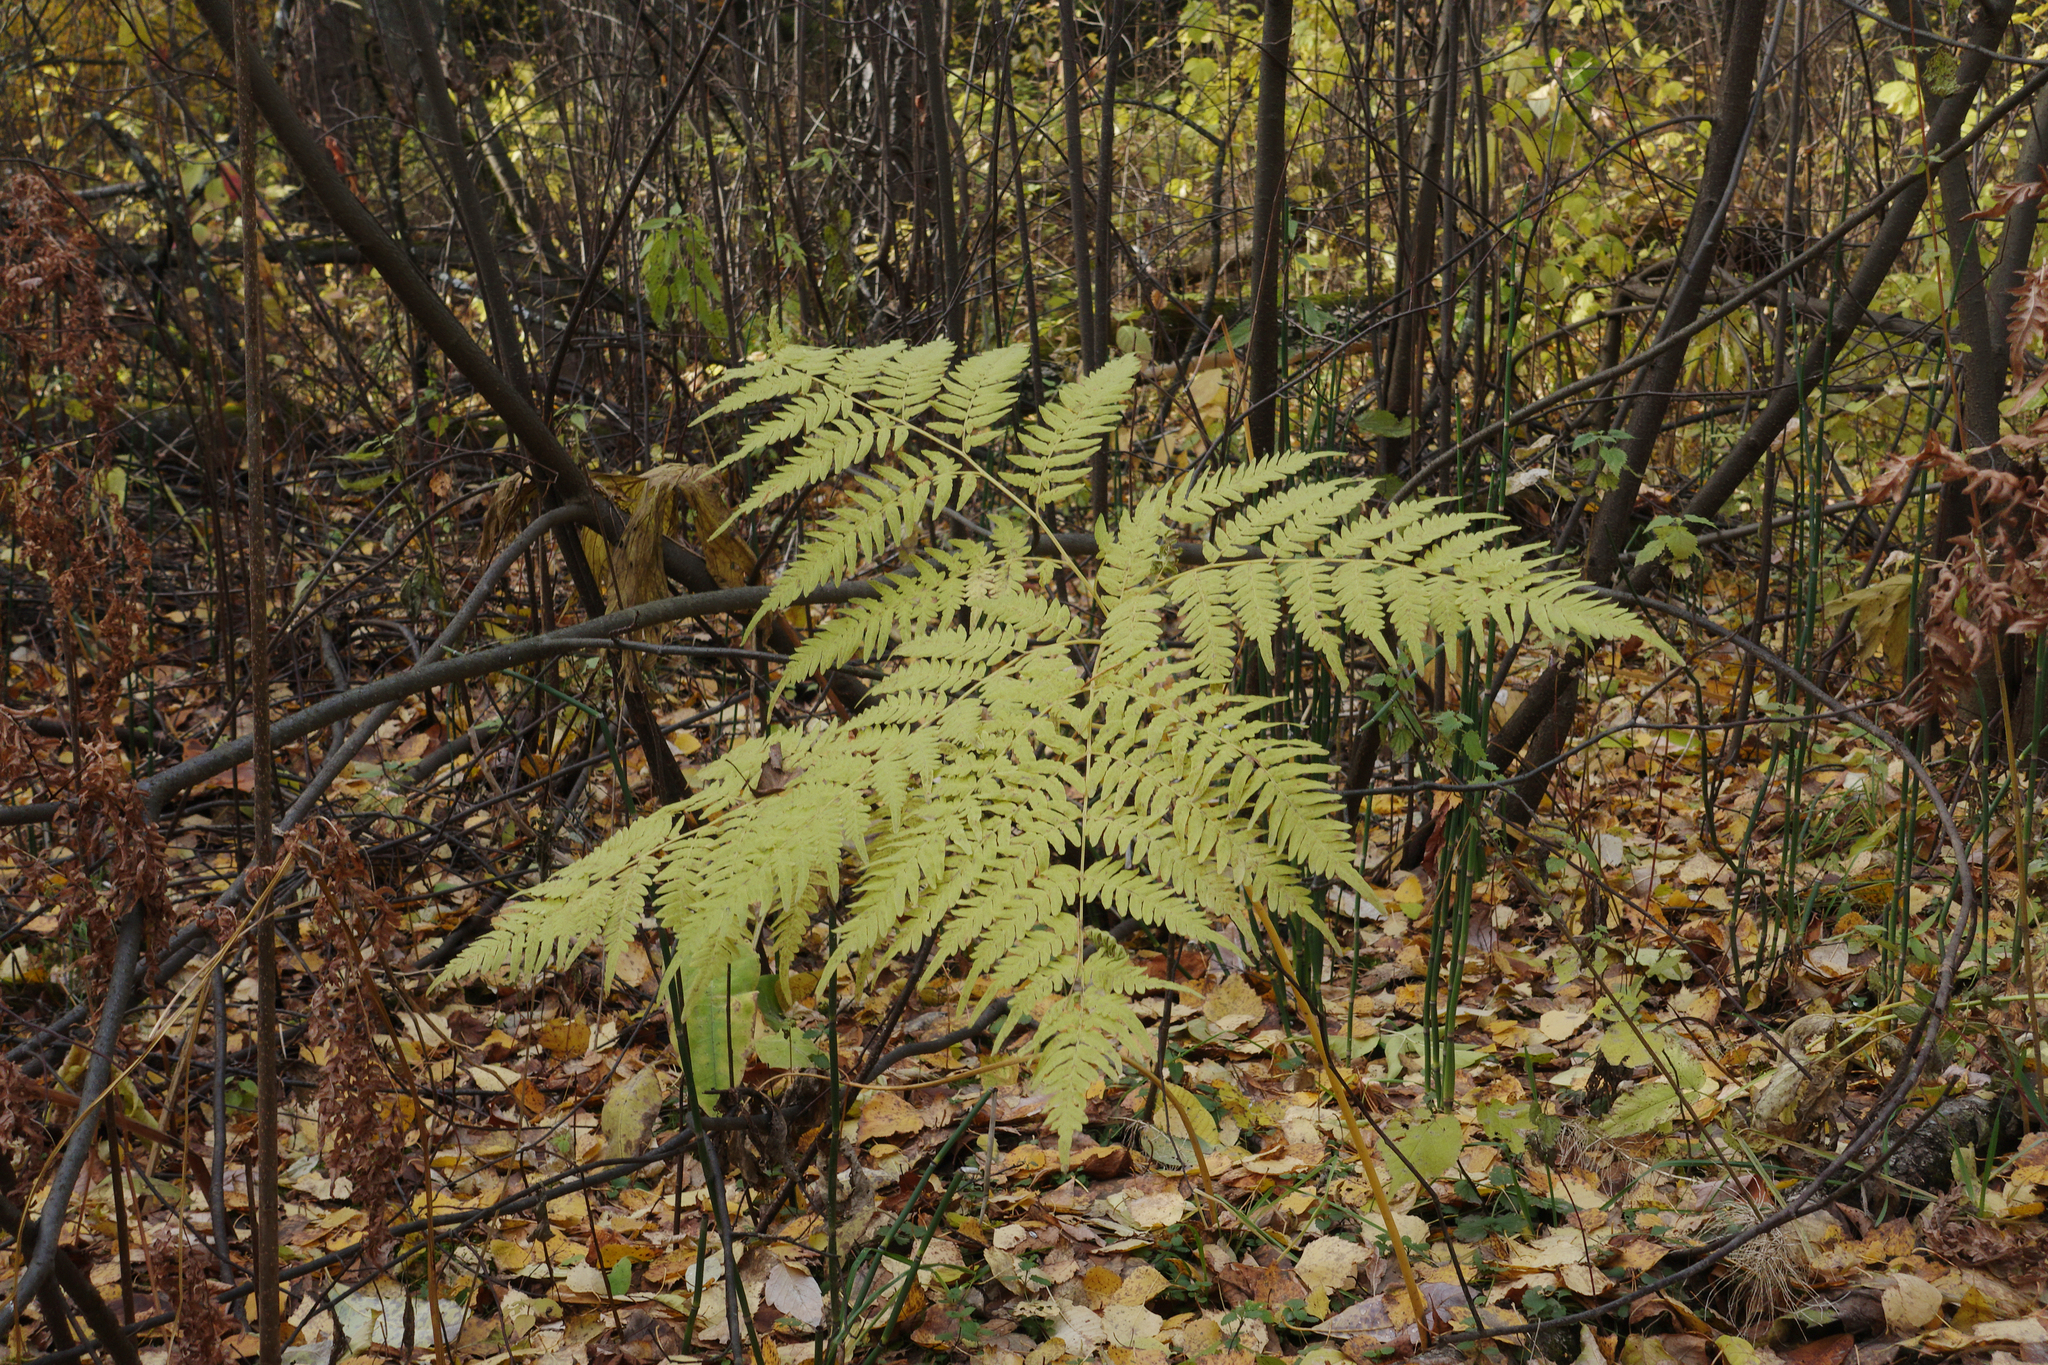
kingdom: Plantae
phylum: Tracheophyta
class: Polypodiopsida
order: Polypodiales
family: Dennstaedtiaceae
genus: Pteridium
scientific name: Pteridium aquilinum
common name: Bracken
